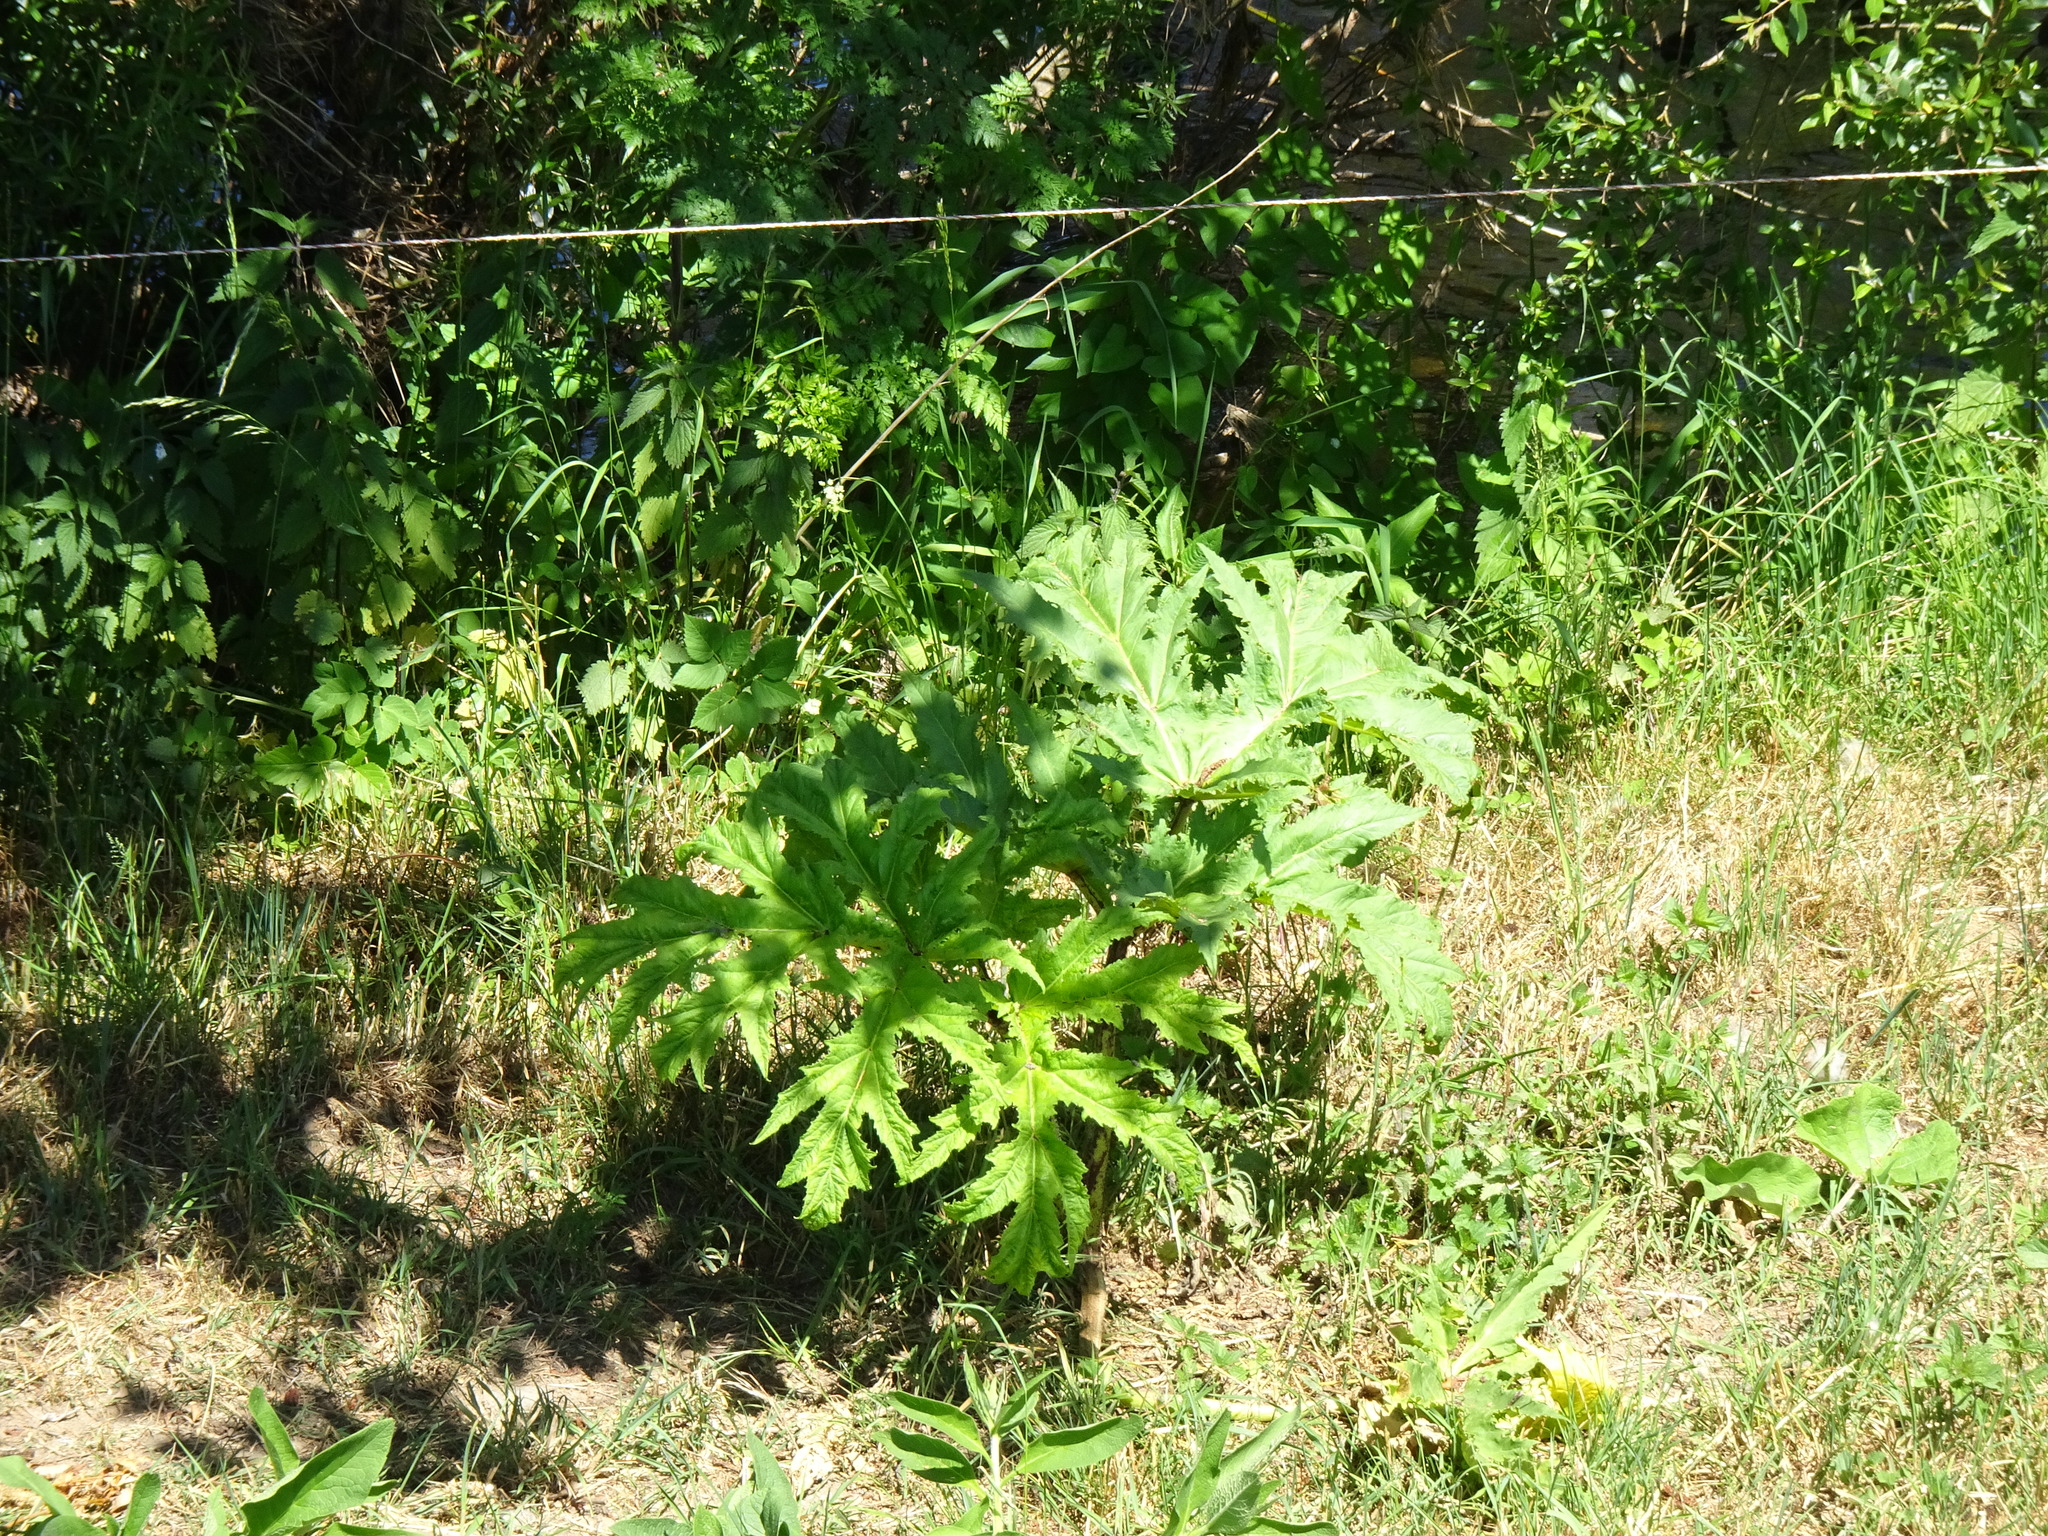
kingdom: Plantae
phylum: Tracheophyta
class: Magnoliopsida
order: Apiales
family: Apiaceae
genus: Heracleum
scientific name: Heracleum mantegazzianum
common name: Giant hogweed
